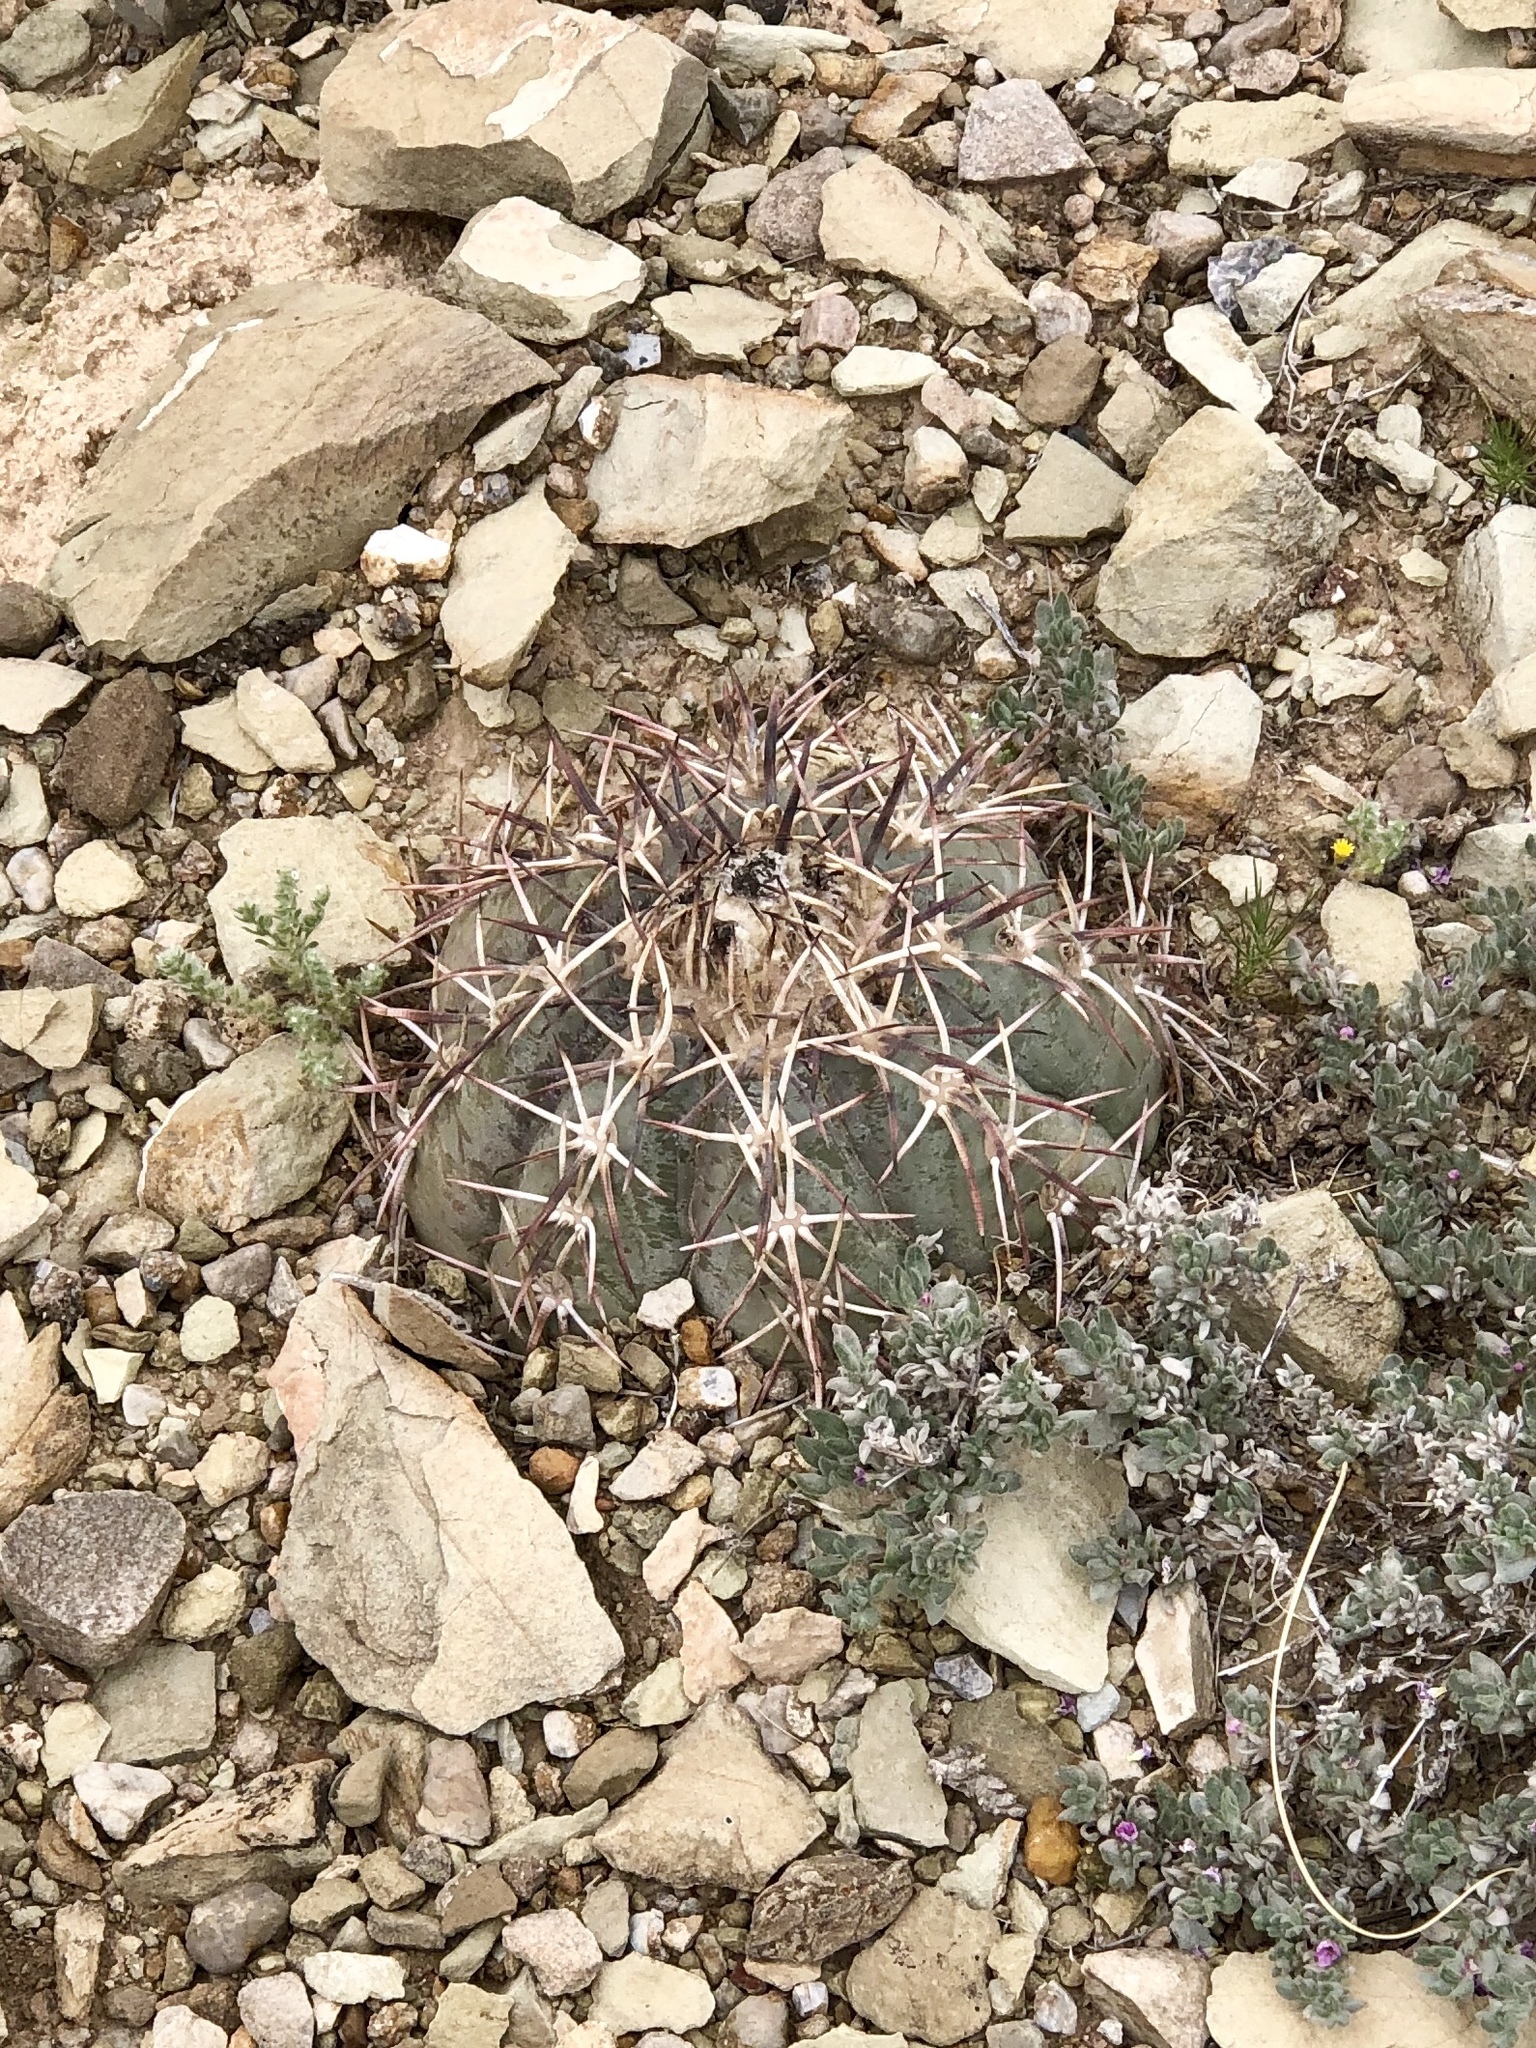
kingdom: Plantae
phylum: Tracheophyta
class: Magnoliopsida
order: Caryophyllales
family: Cactaceae
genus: Echinocactus
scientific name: Echinocactus horizonthalonius
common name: Devilshead
